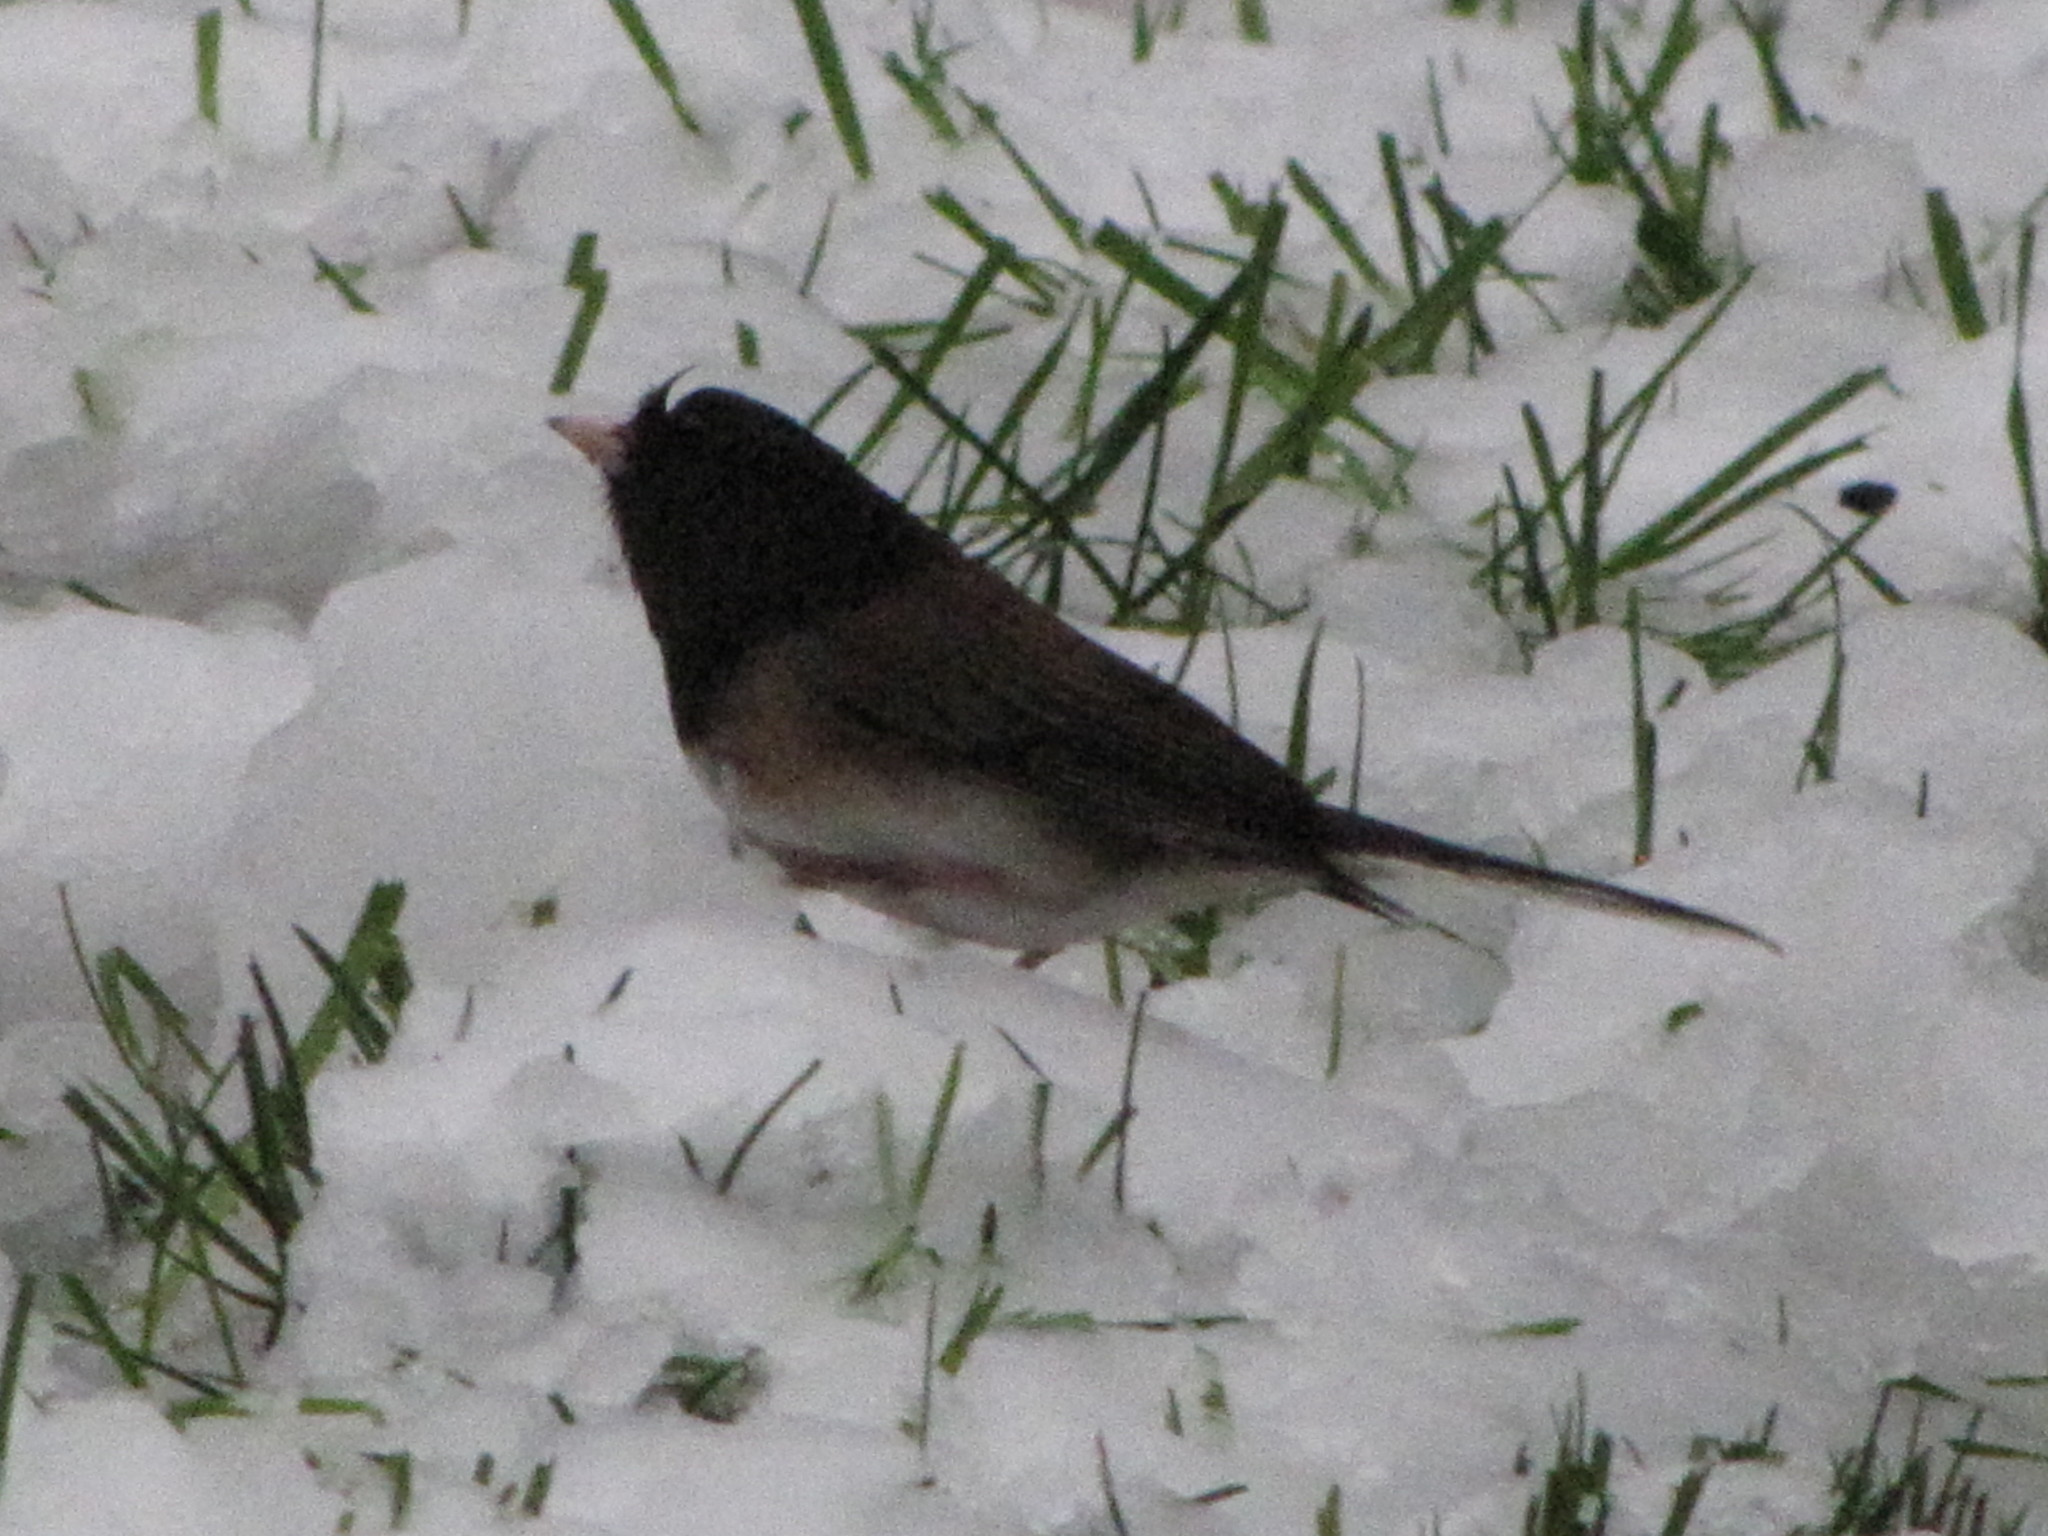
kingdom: Animalia
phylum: Chordata
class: Aves
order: Passeriformes
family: Passerellidae
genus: Junco
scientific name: Junco hyemalis
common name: Dark-eyed junco
